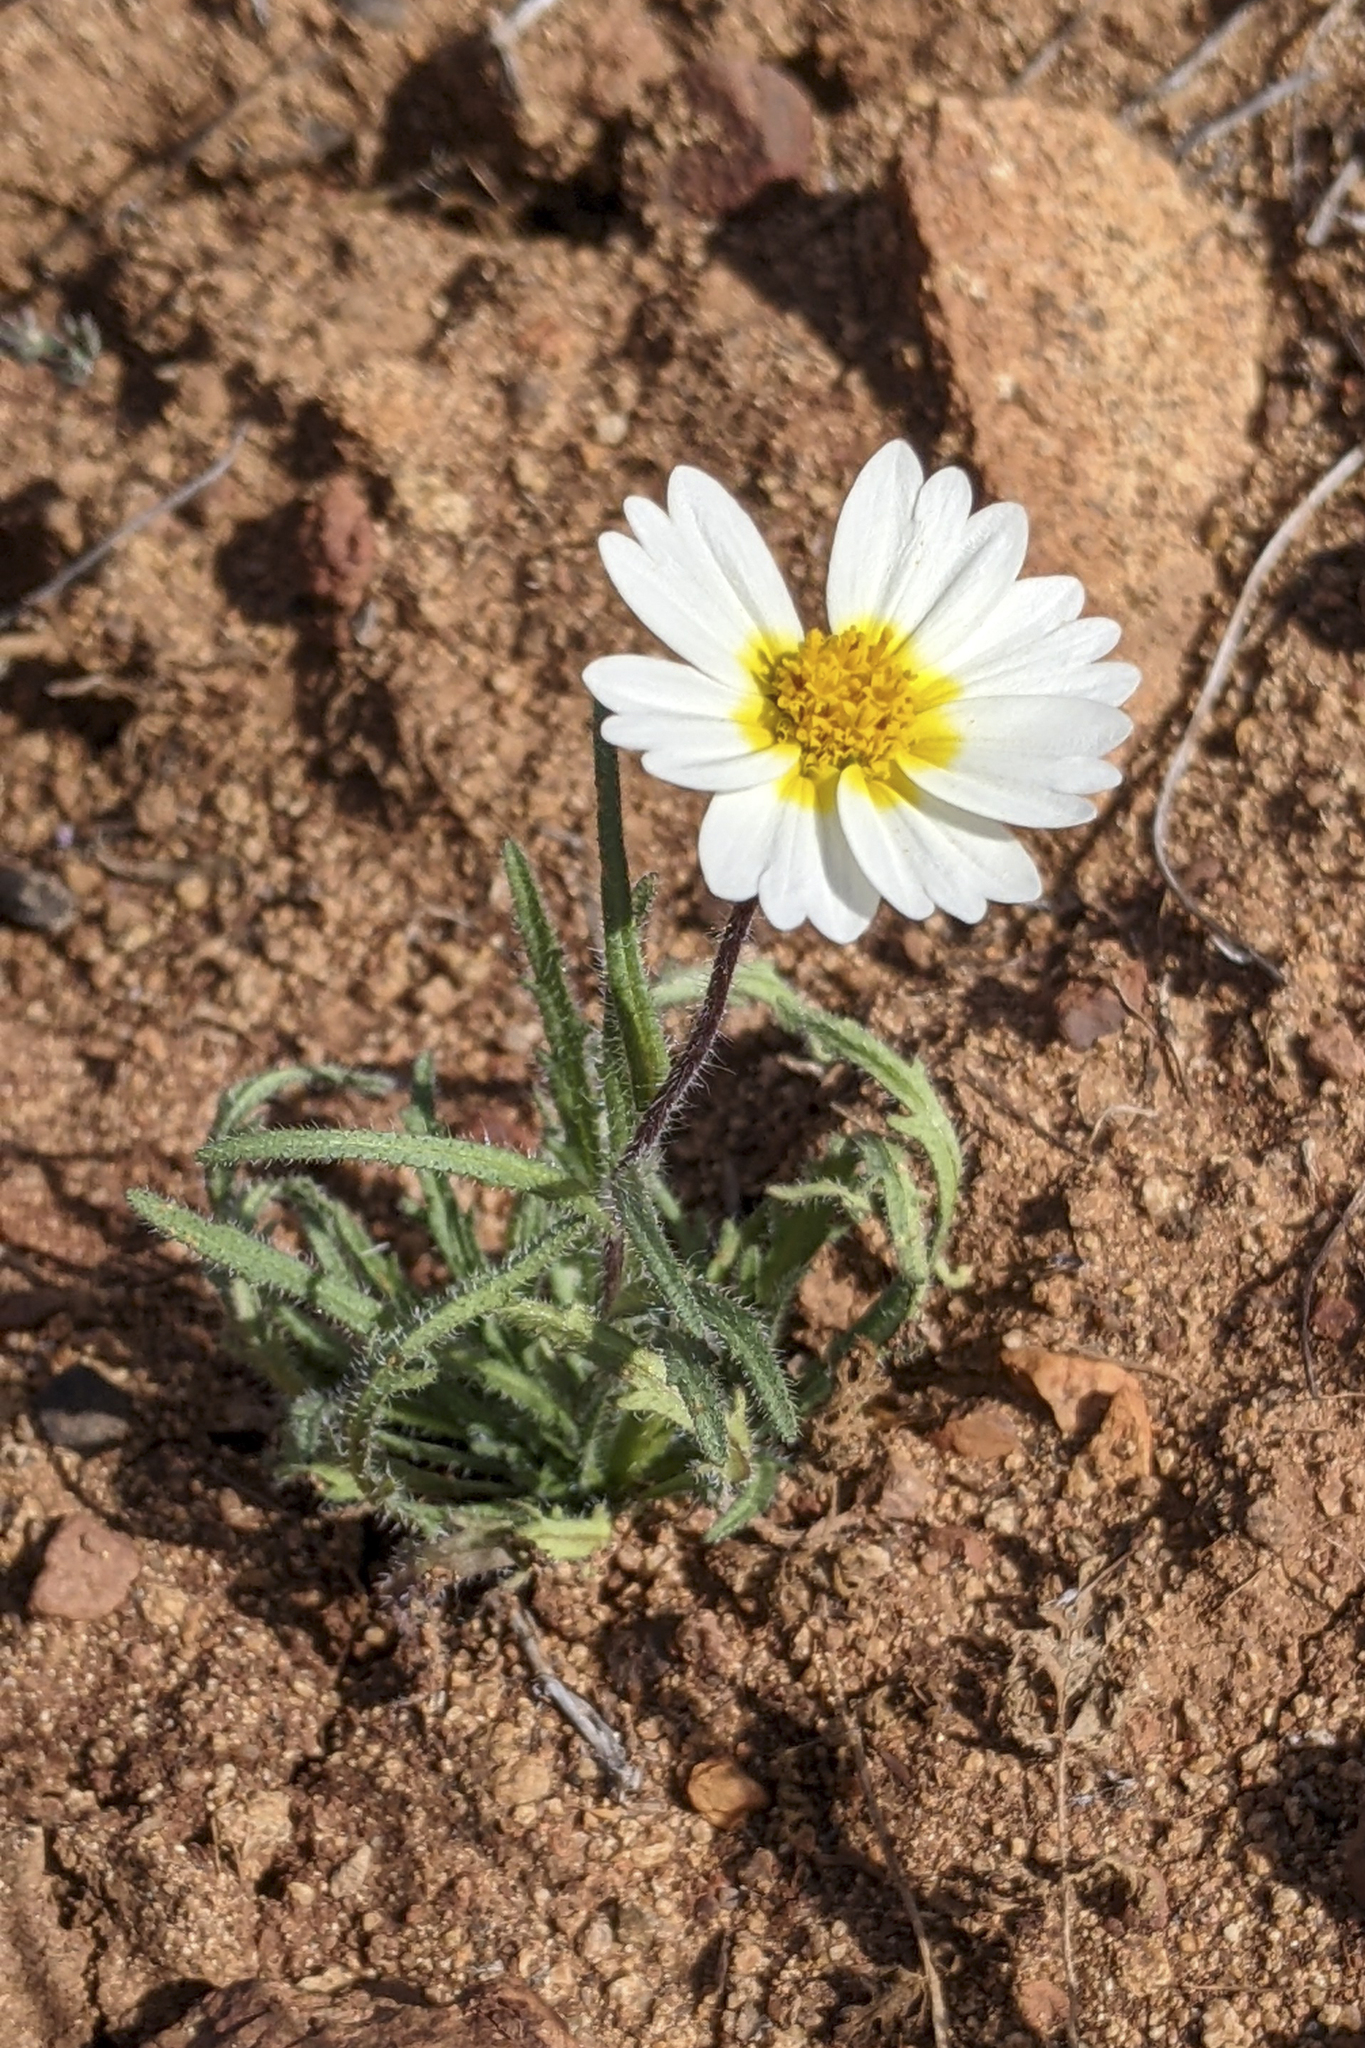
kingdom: Plantae
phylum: Tracheophyta
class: Magnoliopsida
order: Asterales
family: Asteraceae
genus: Layia
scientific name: Layia platyglossa
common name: Tidy-tips
